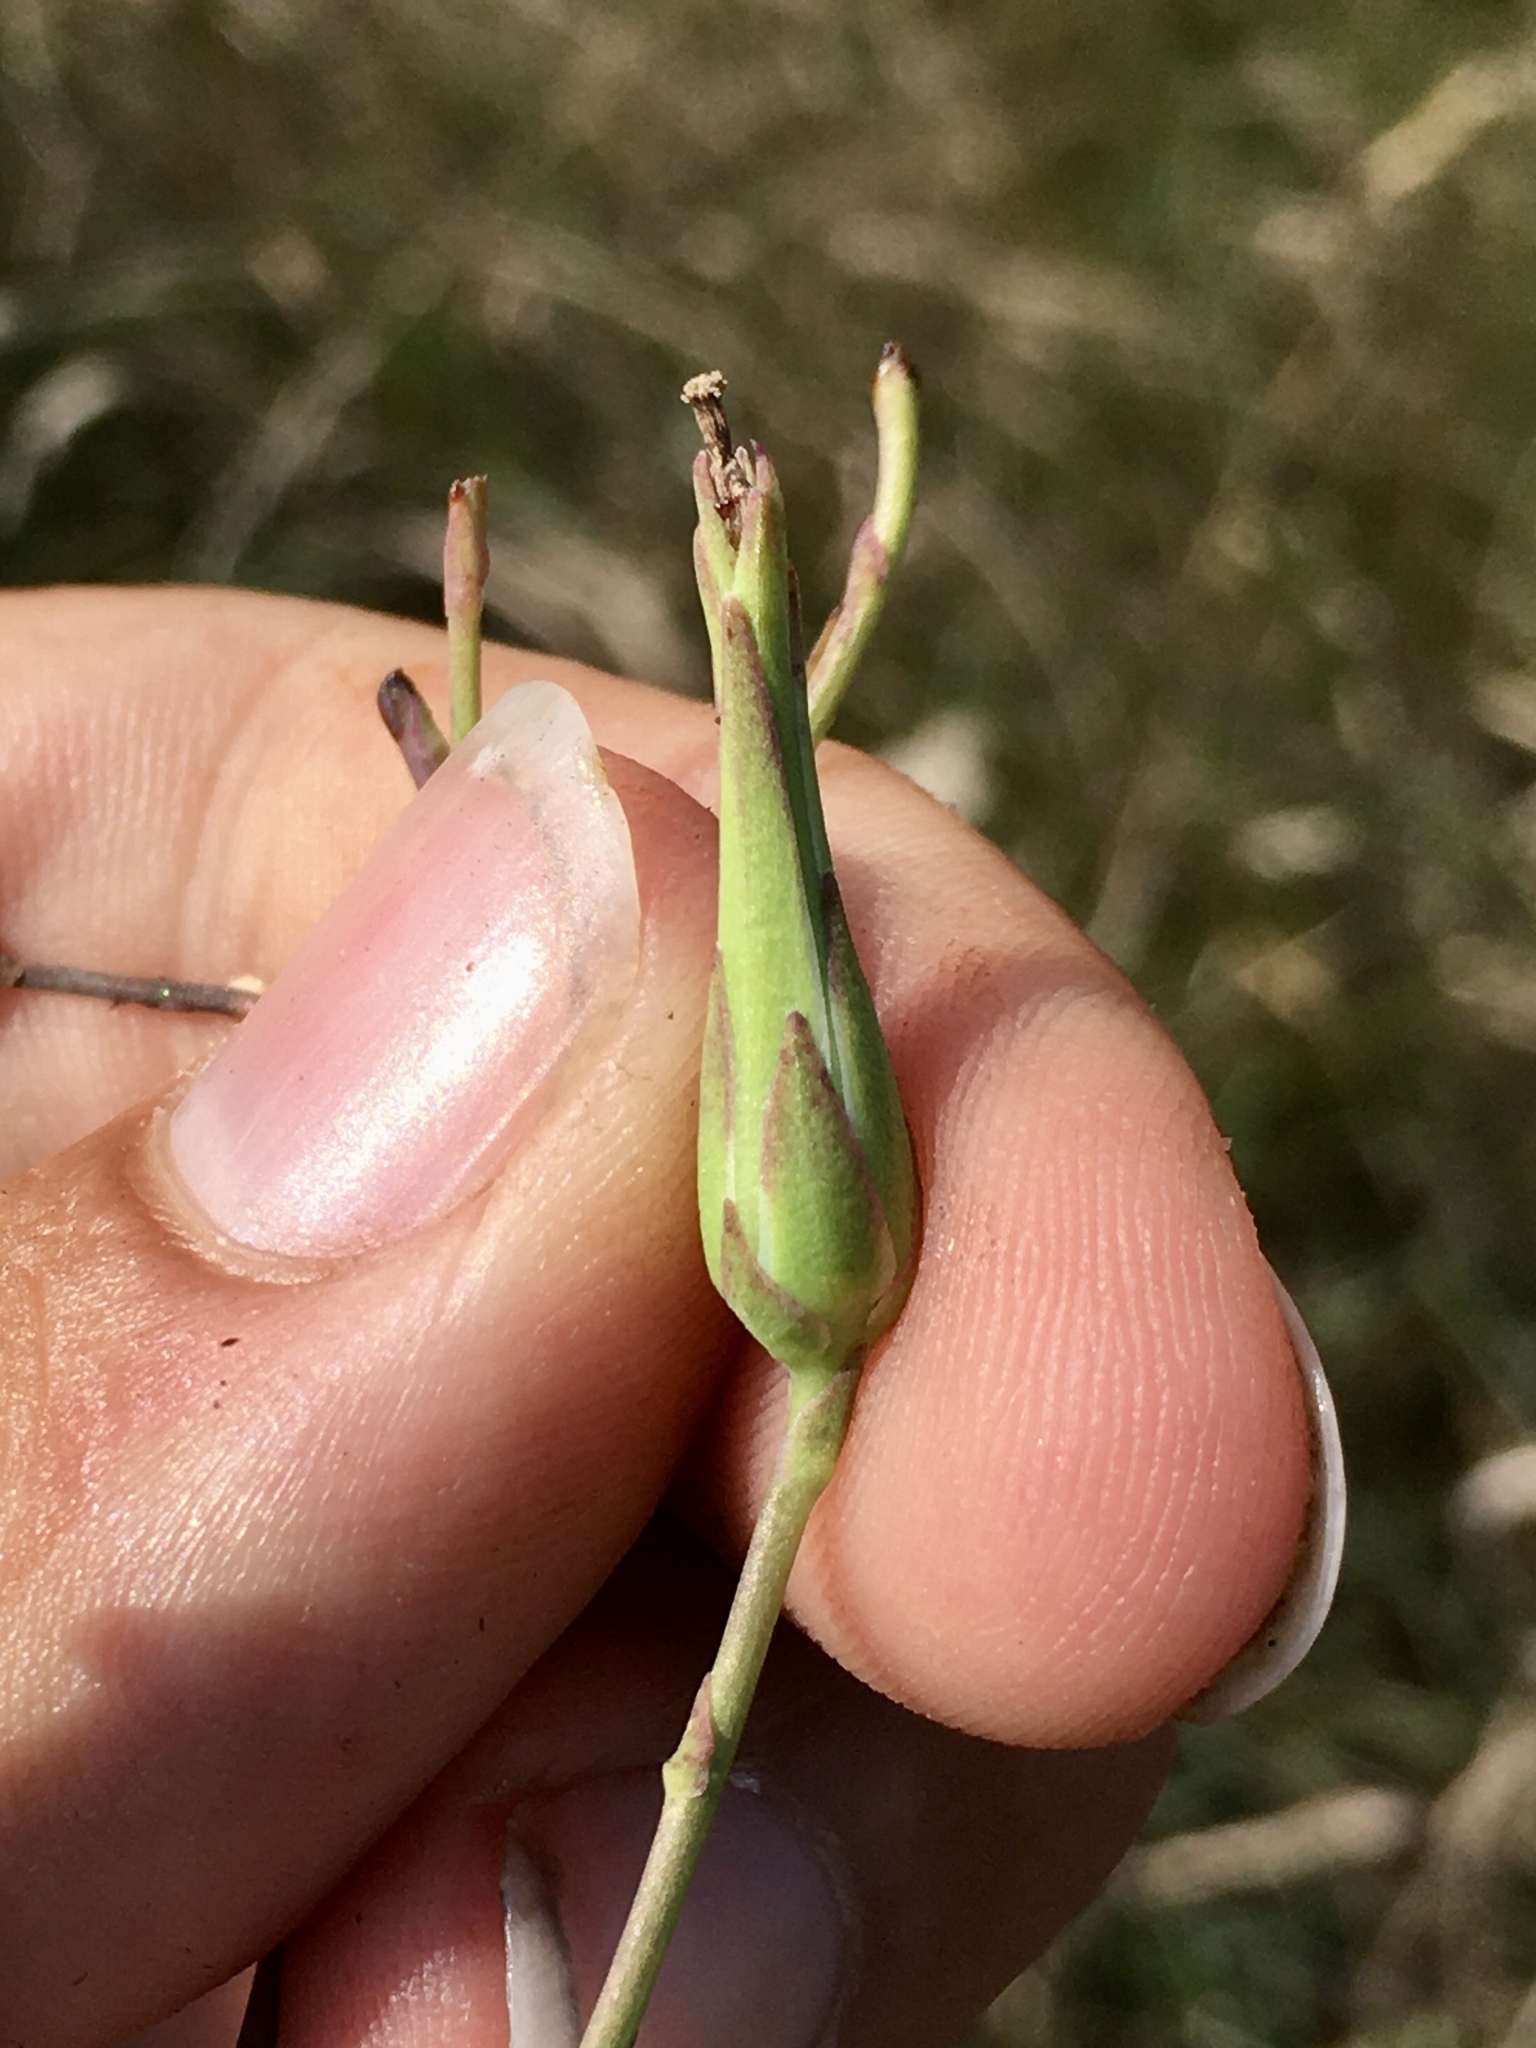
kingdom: Plantae
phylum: Tracheophyta
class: Magnoliopsida
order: Asterales
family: Asteraceae
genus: Lactuca
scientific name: Lactuca ludoviciana
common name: Louisiana lettuce
